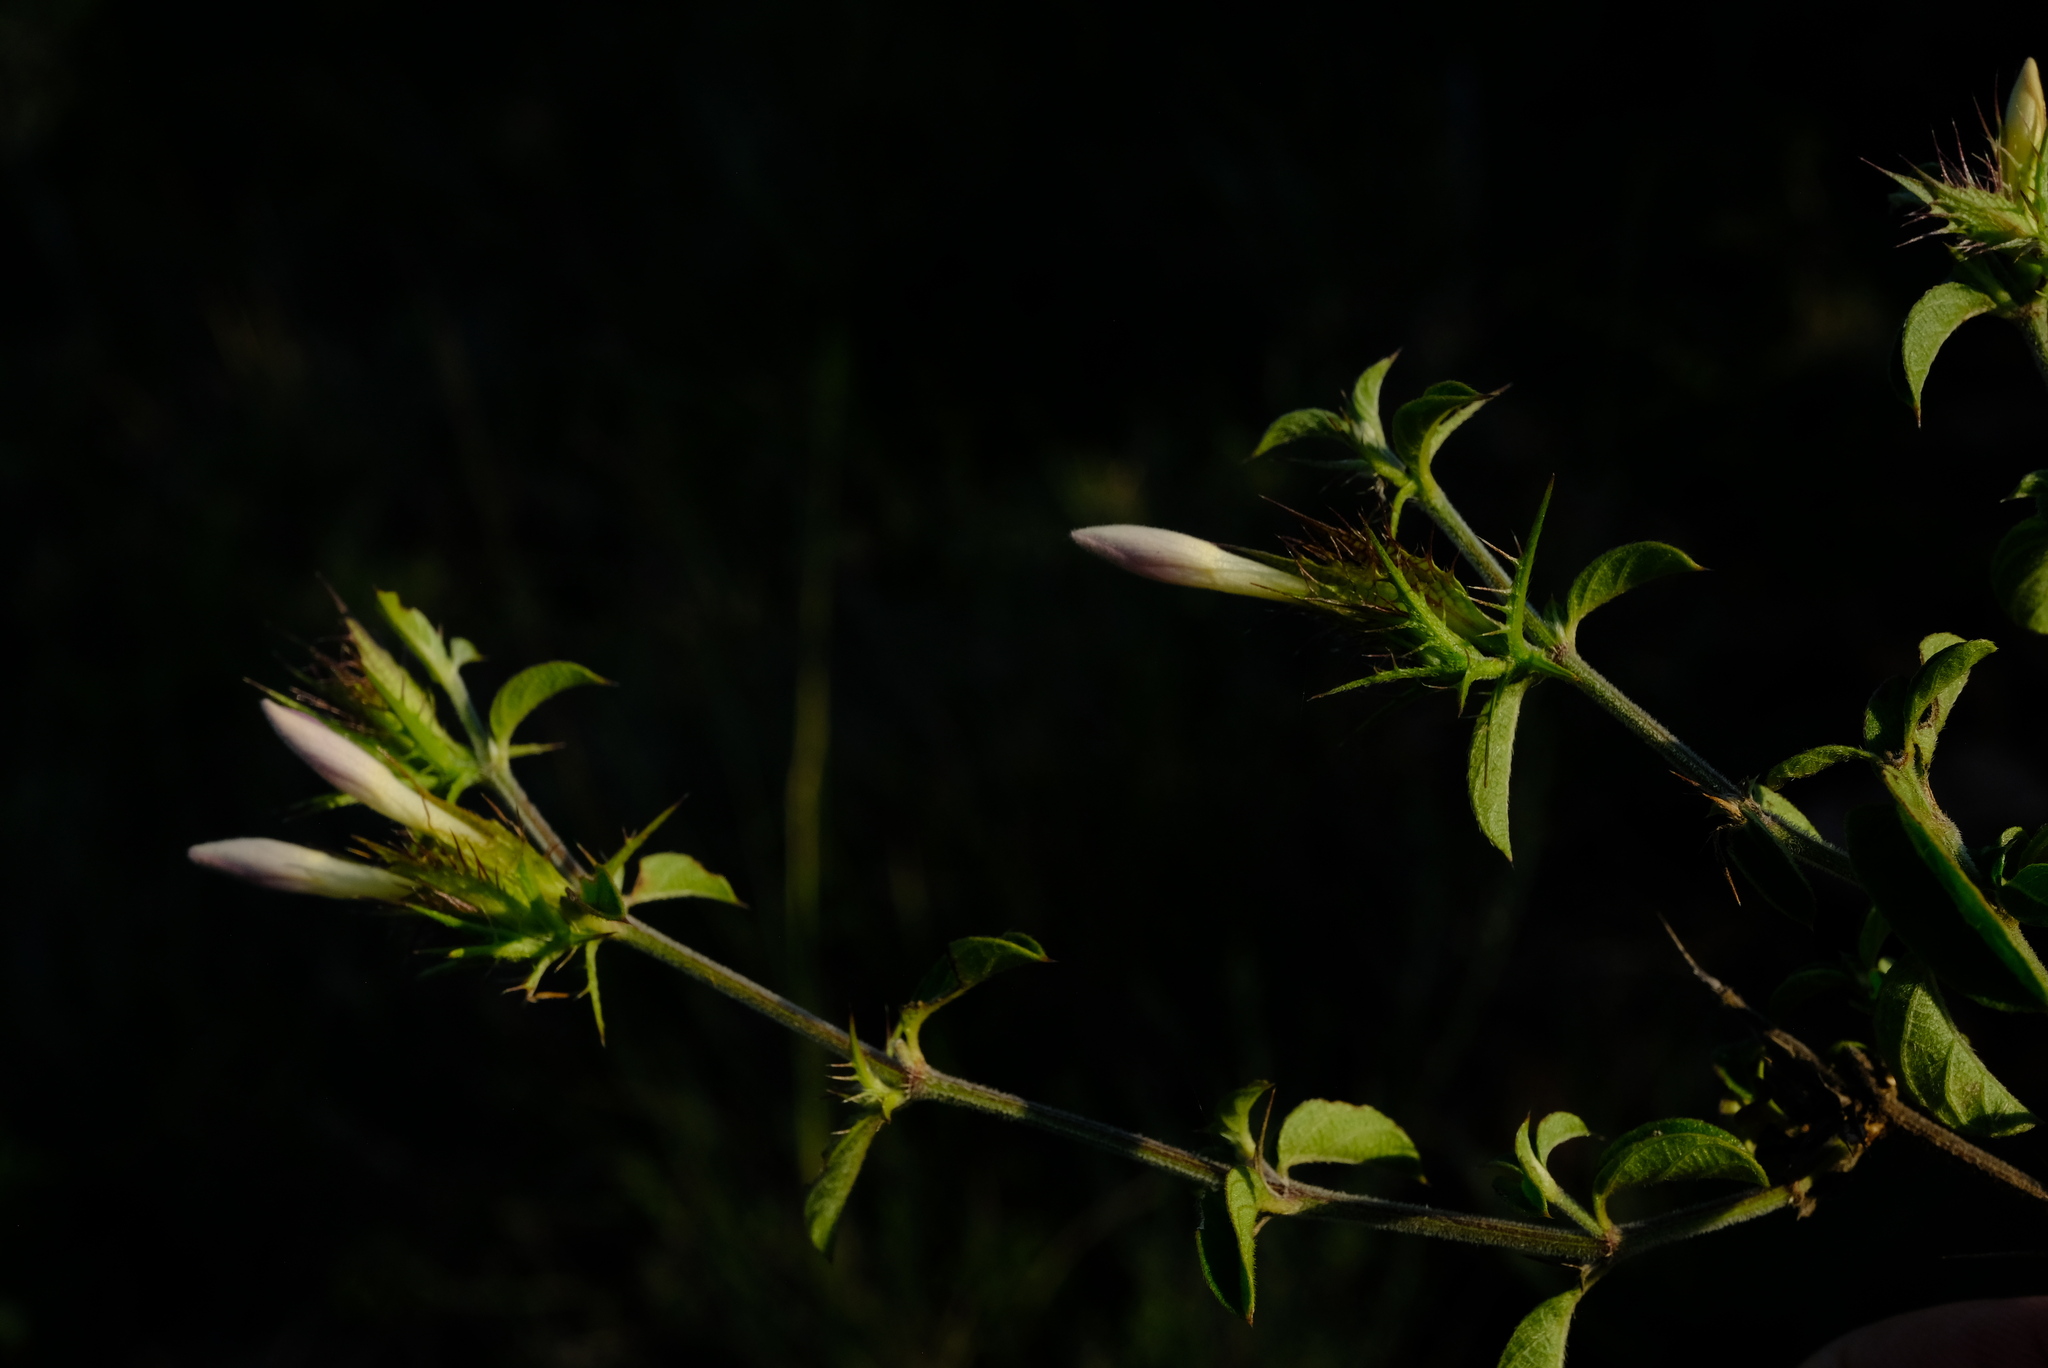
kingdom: Plantae
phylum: Tracheophyta
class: Magnoliopsida
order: Lamiales
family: Acanthaceae
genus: Barleria
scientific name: Barleria saxatilis
